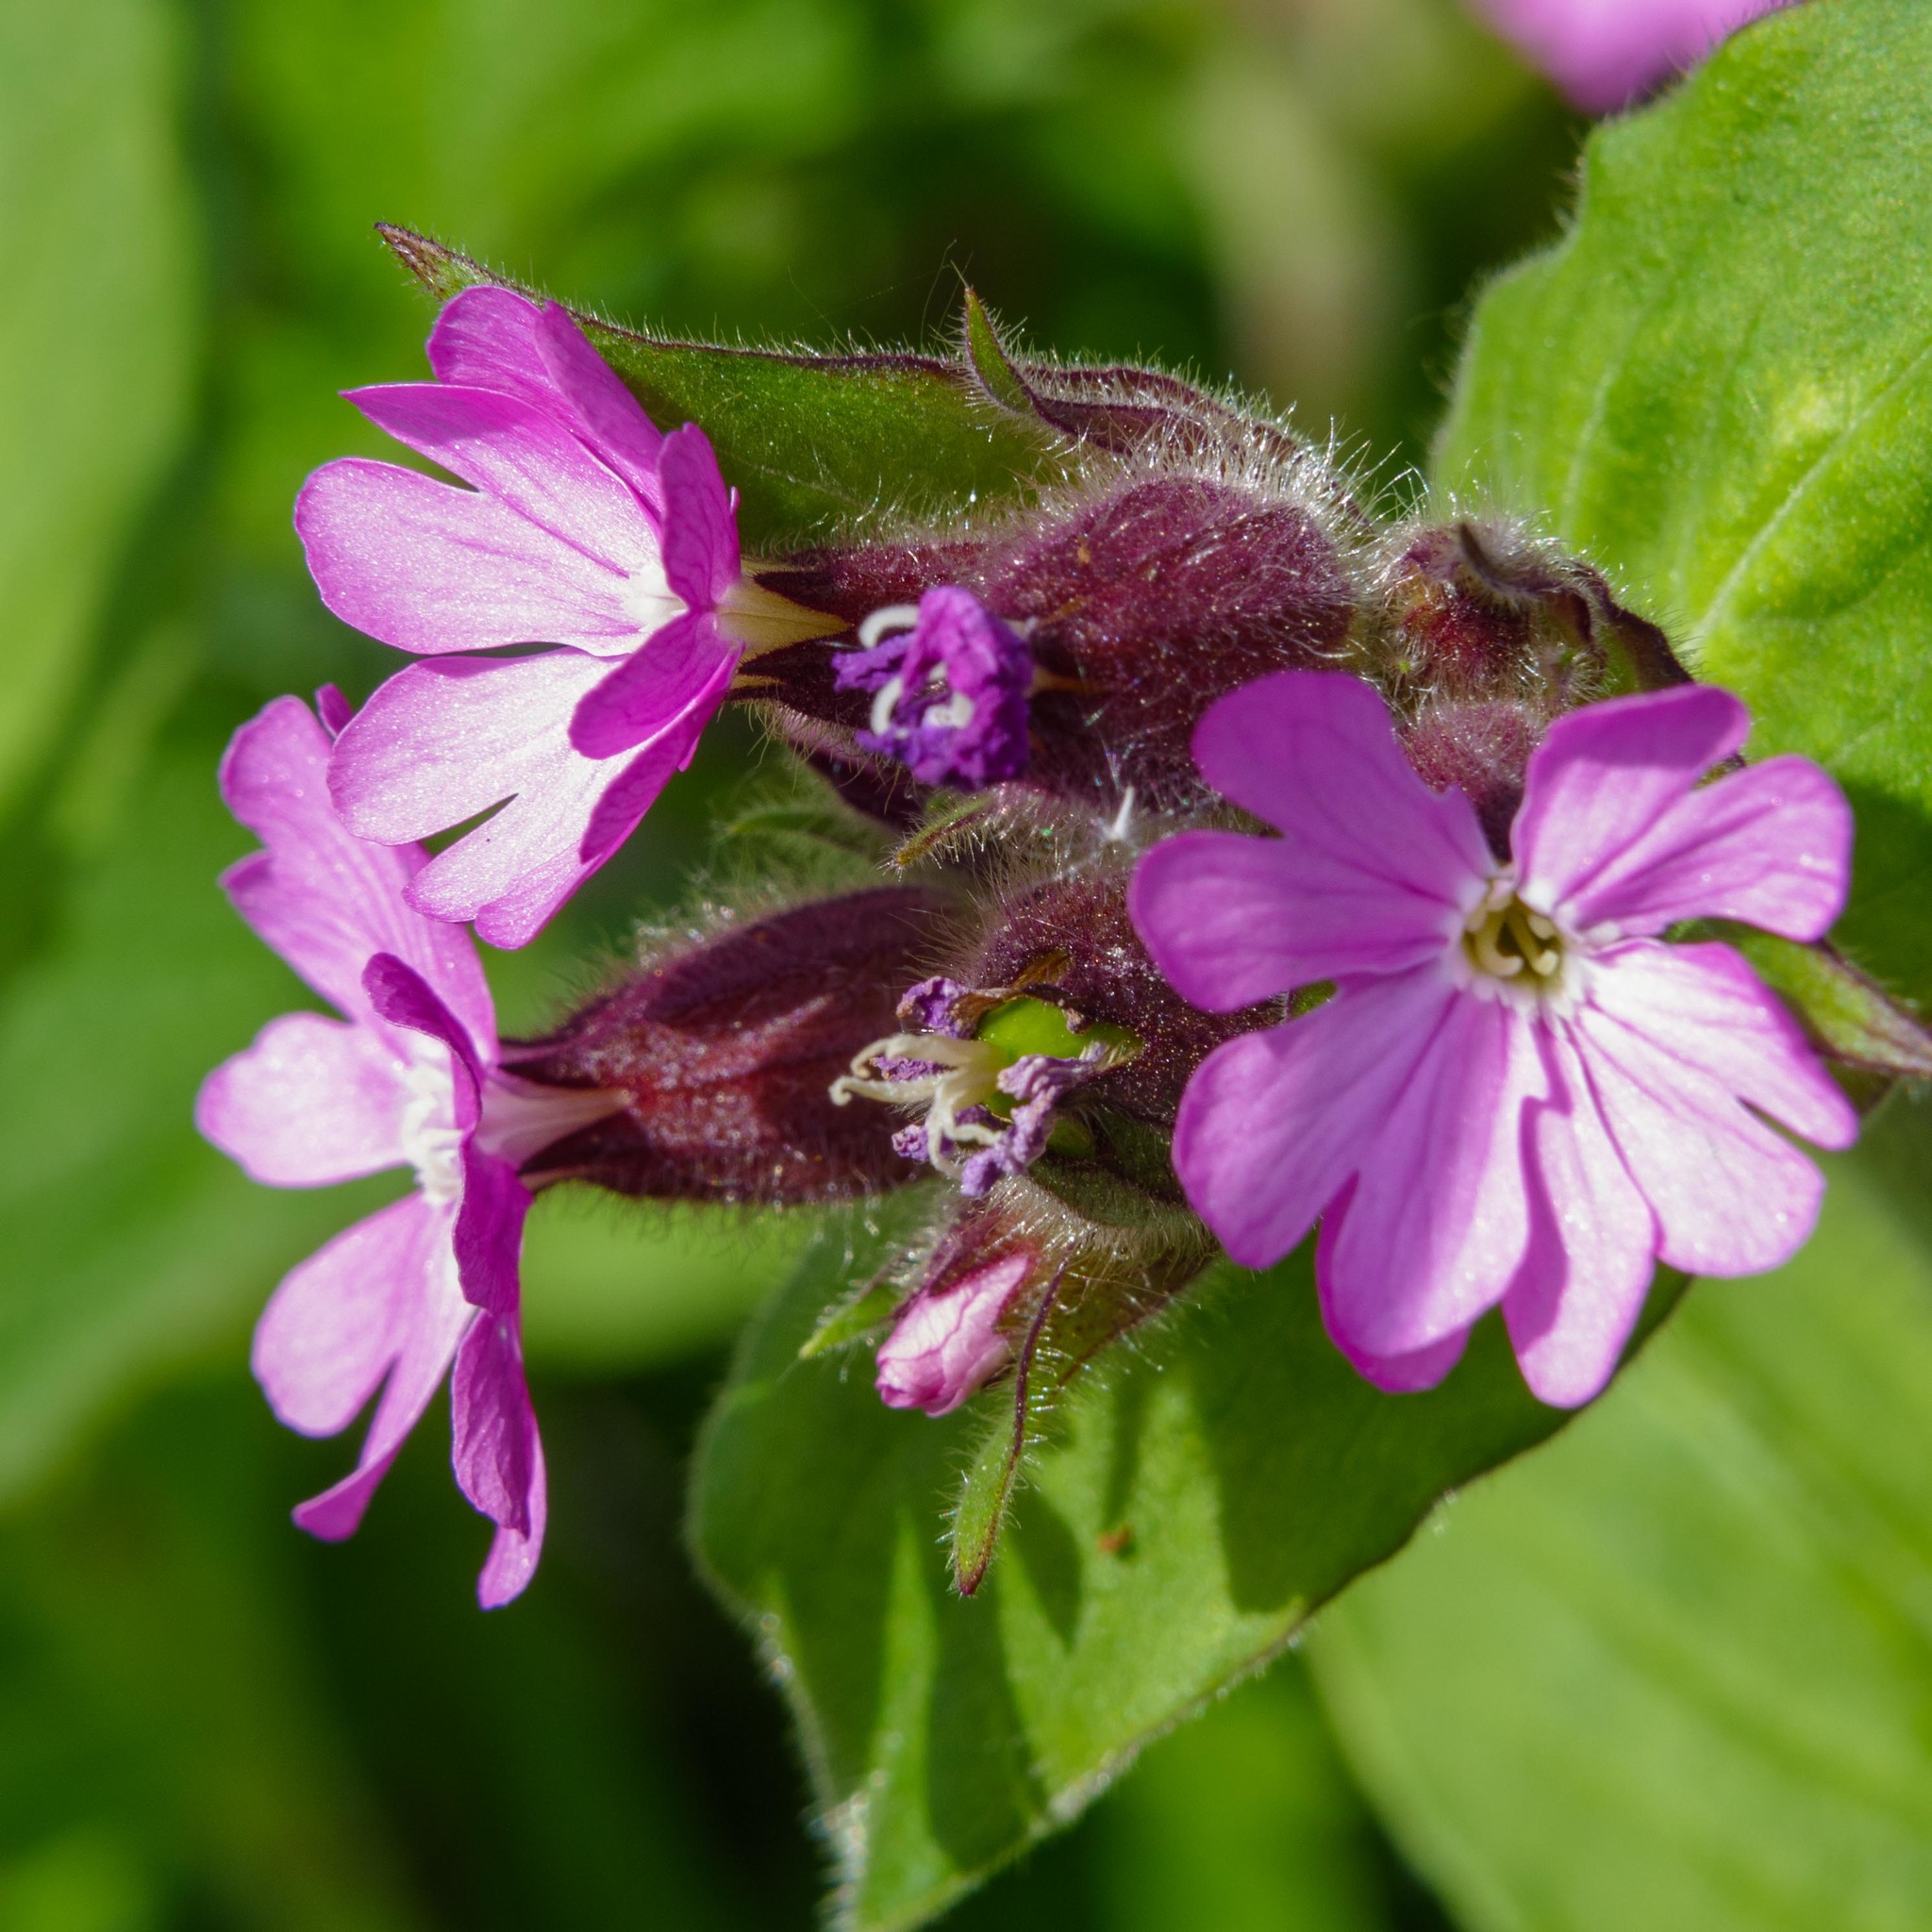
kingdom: Plantae
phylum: Tracheophyta
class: Magnoliopsida
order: Caryophyllales
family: Caryophyllaceae
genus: Silene
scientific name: Silene dioica
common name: Red campion
